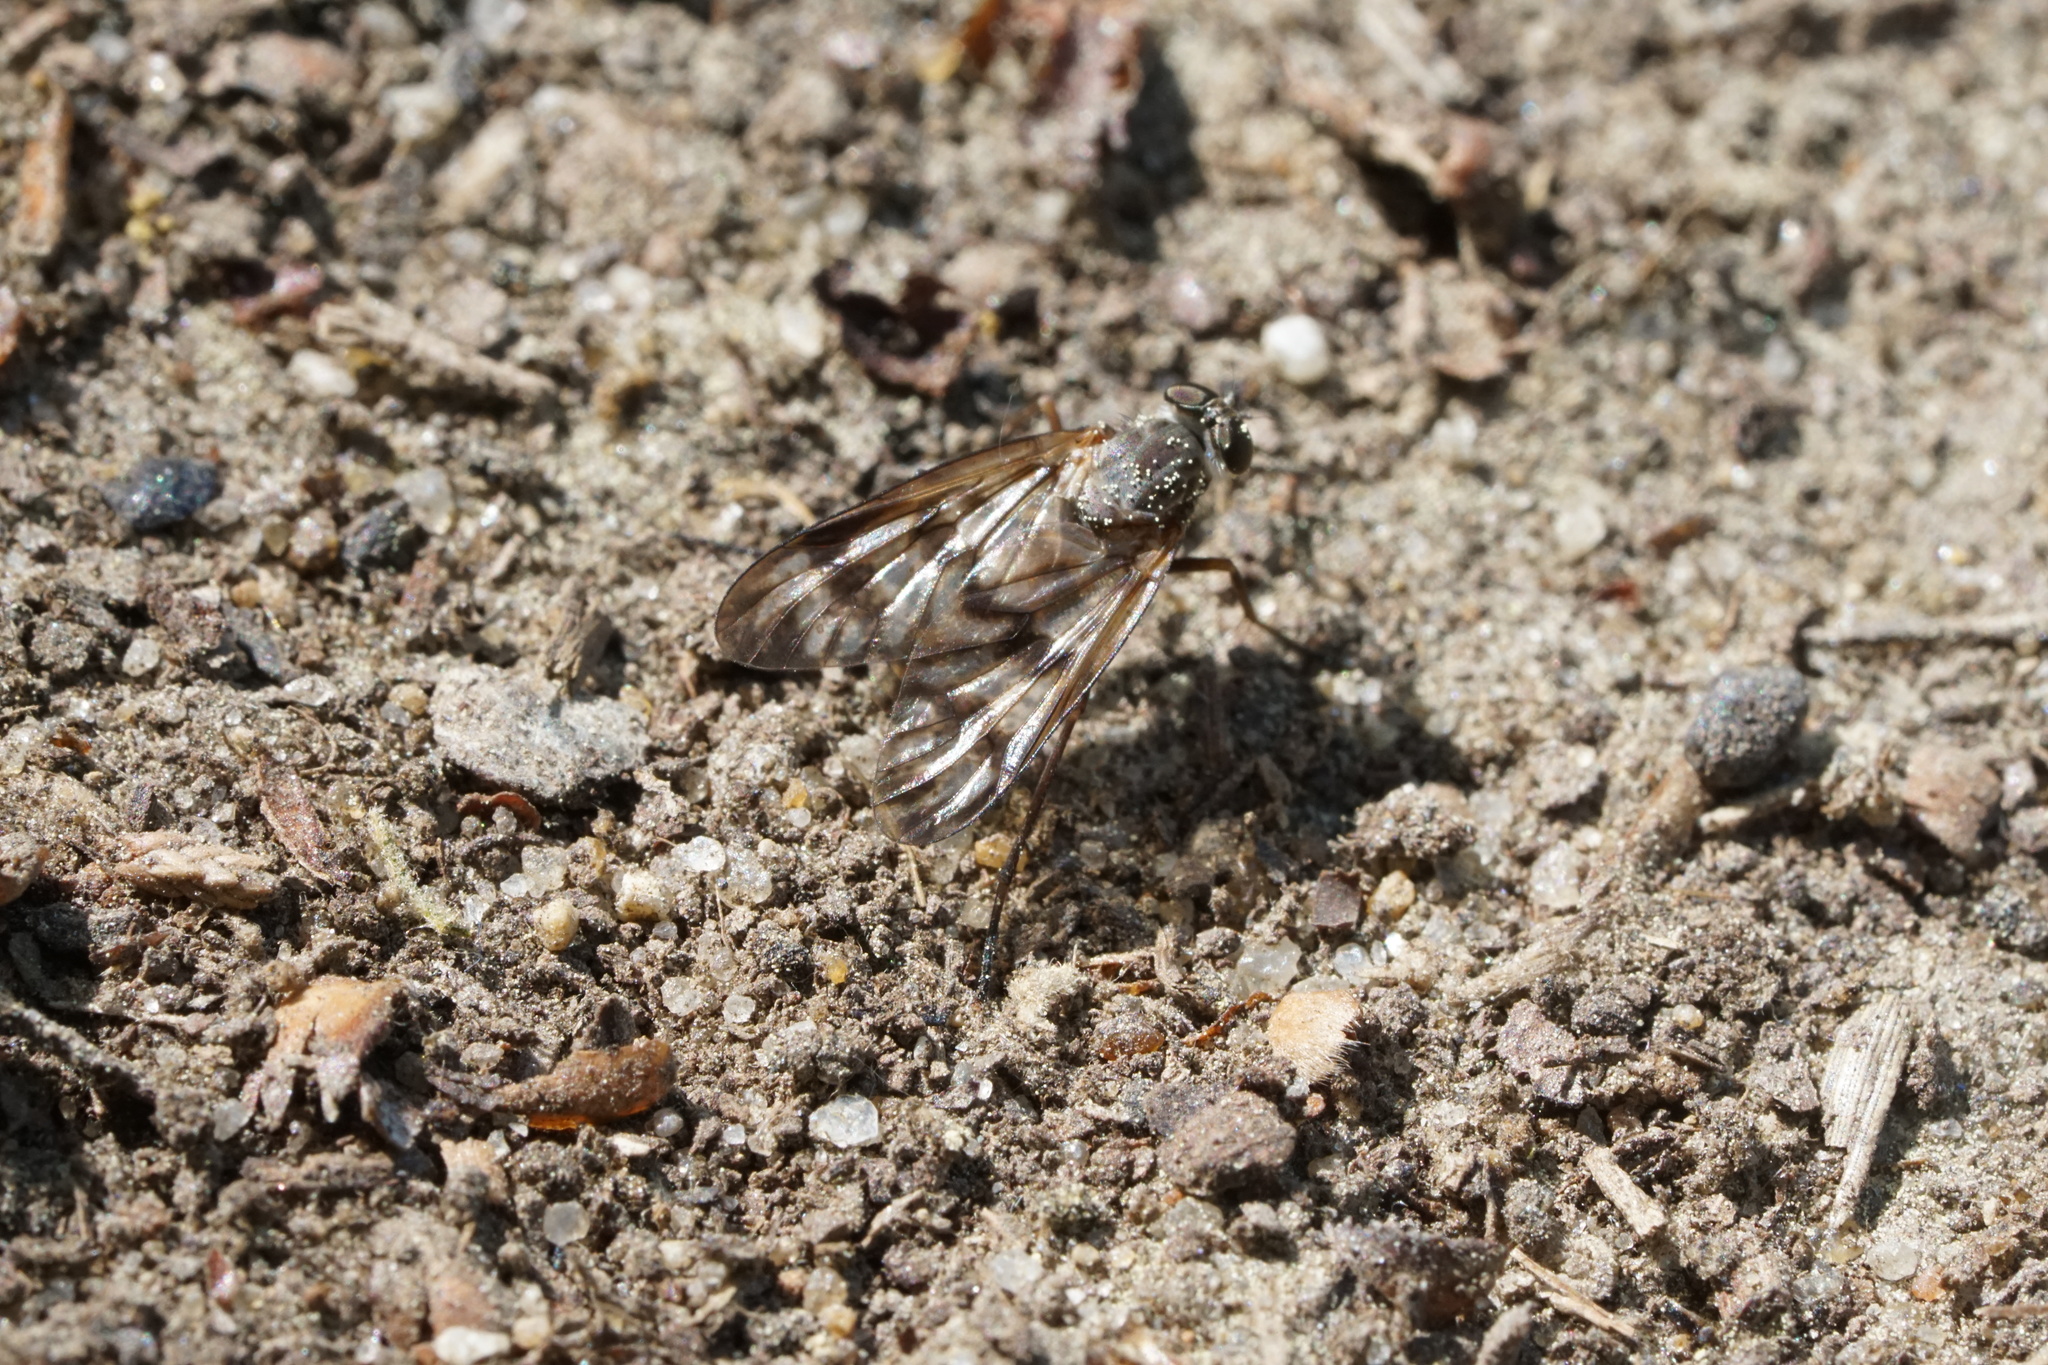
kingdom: Animalia
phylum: Arthropoda
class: Insecta
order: Diptera
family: Rhagionidae
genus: Rhagio
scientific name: Rhagio mystaceus
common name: Common snipe fly
